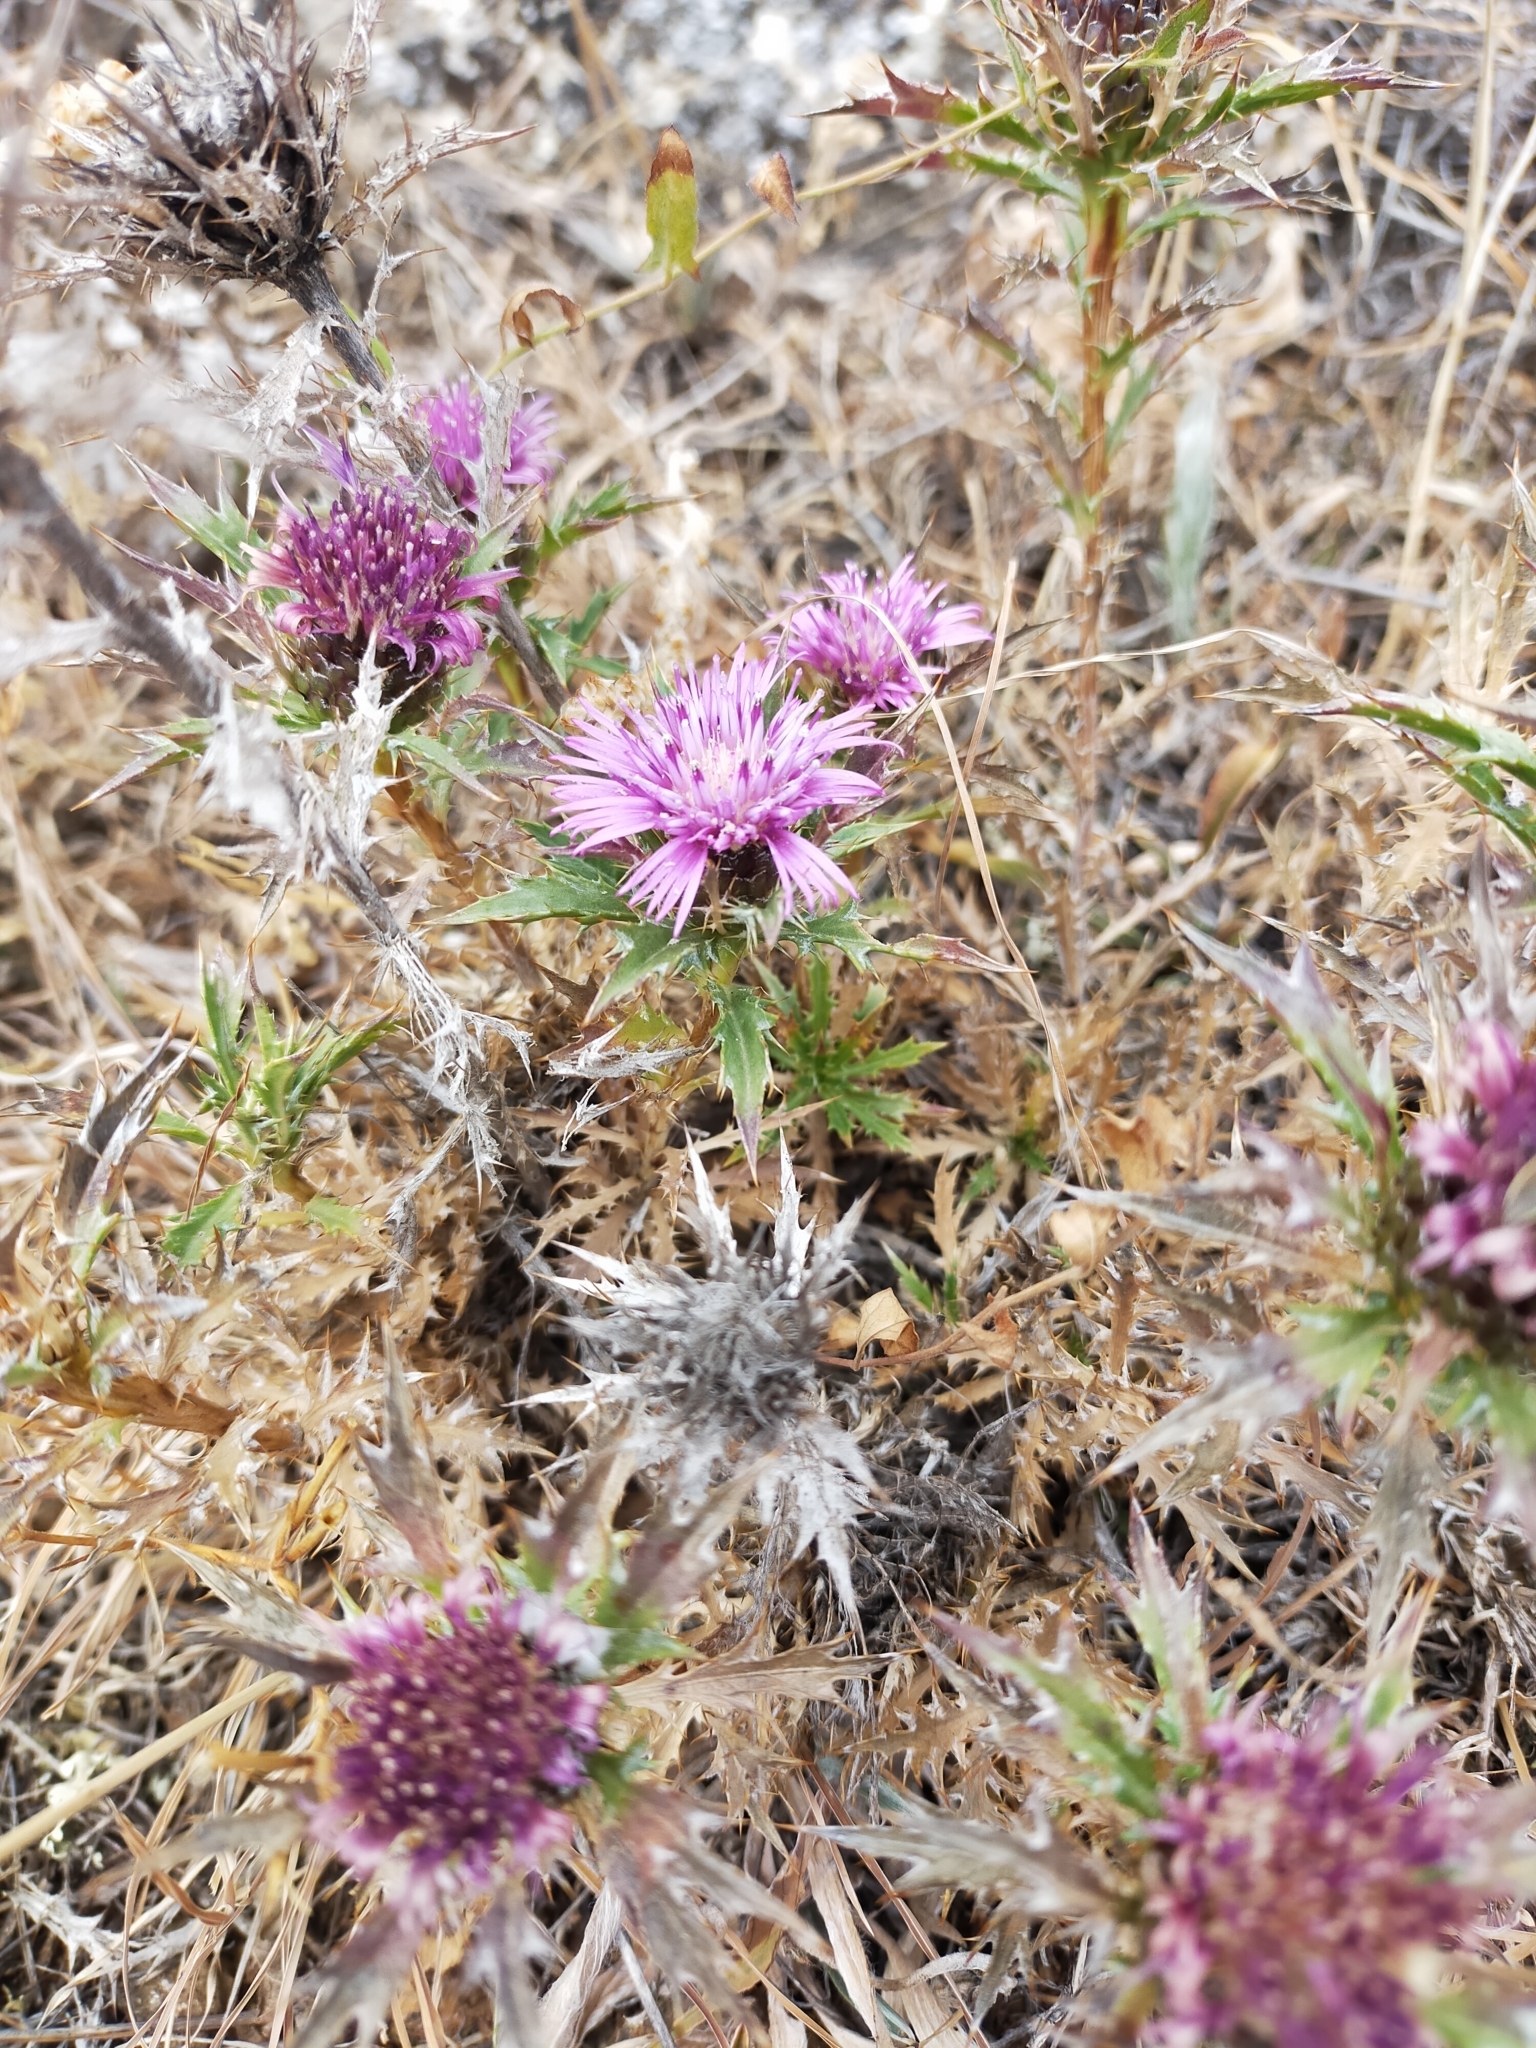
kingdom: Plantae
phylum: Tracheophyta
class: Magnoliopsida
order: Asterales
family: Asteraceae
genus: Atractylis
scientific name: Atractylis humilis
